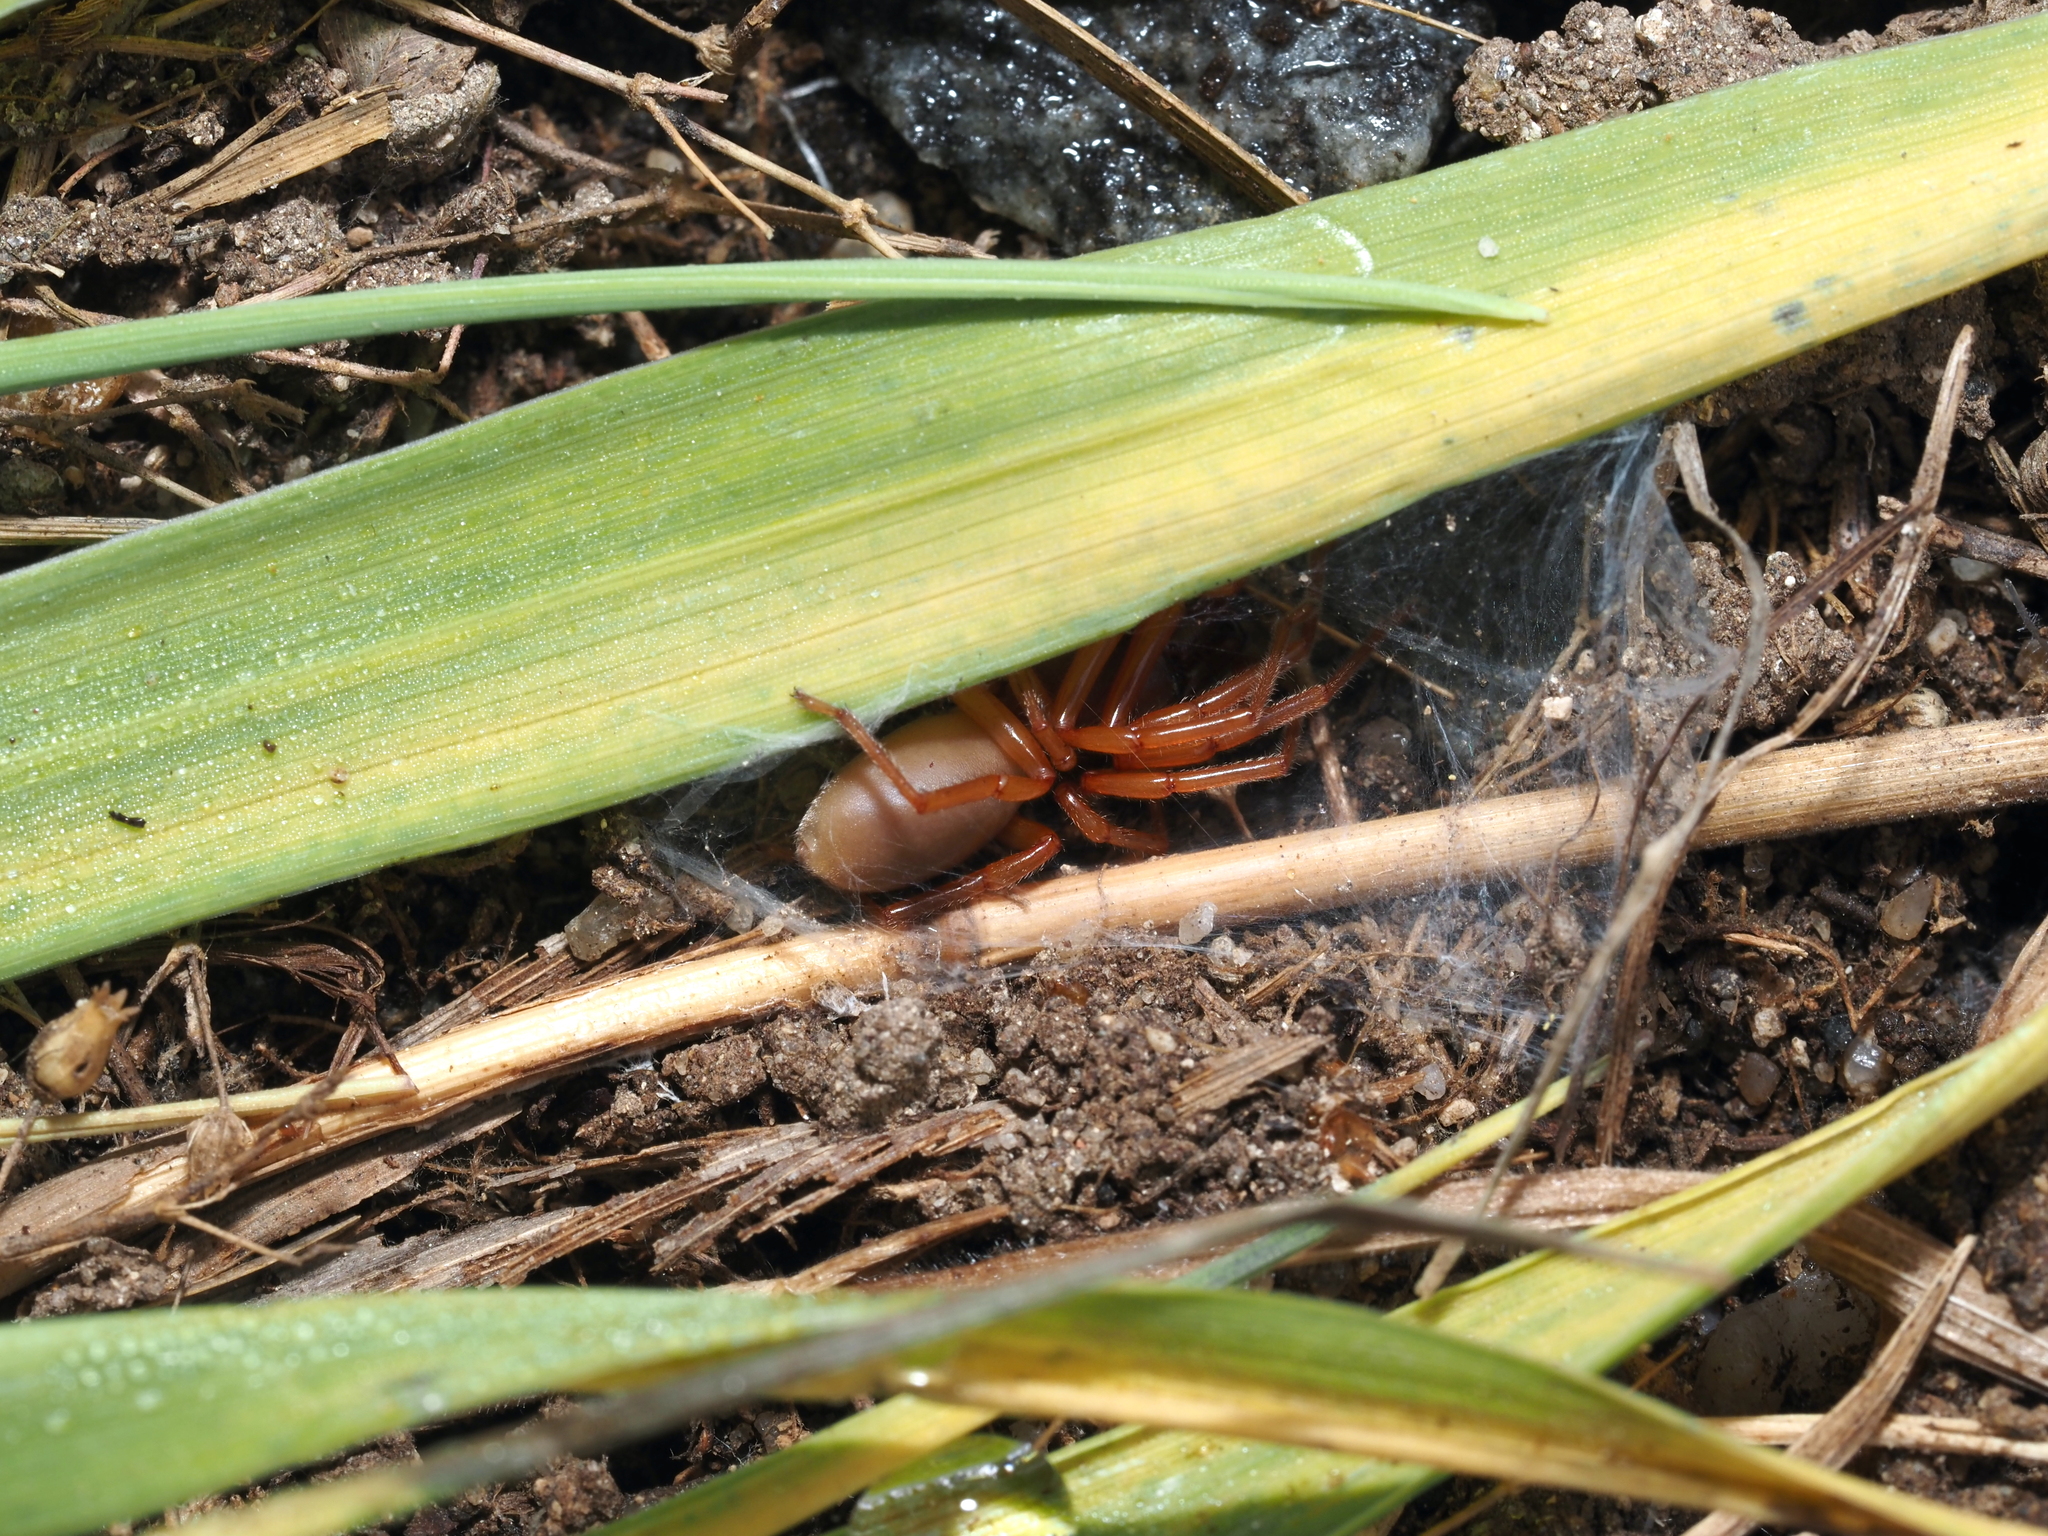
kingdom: Animalia
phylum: Arthropoda
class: Arachnida
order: Araneae
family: Dysderidae
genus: Dysdera
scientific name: Dysdera crocata
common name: Woodlouse spider
